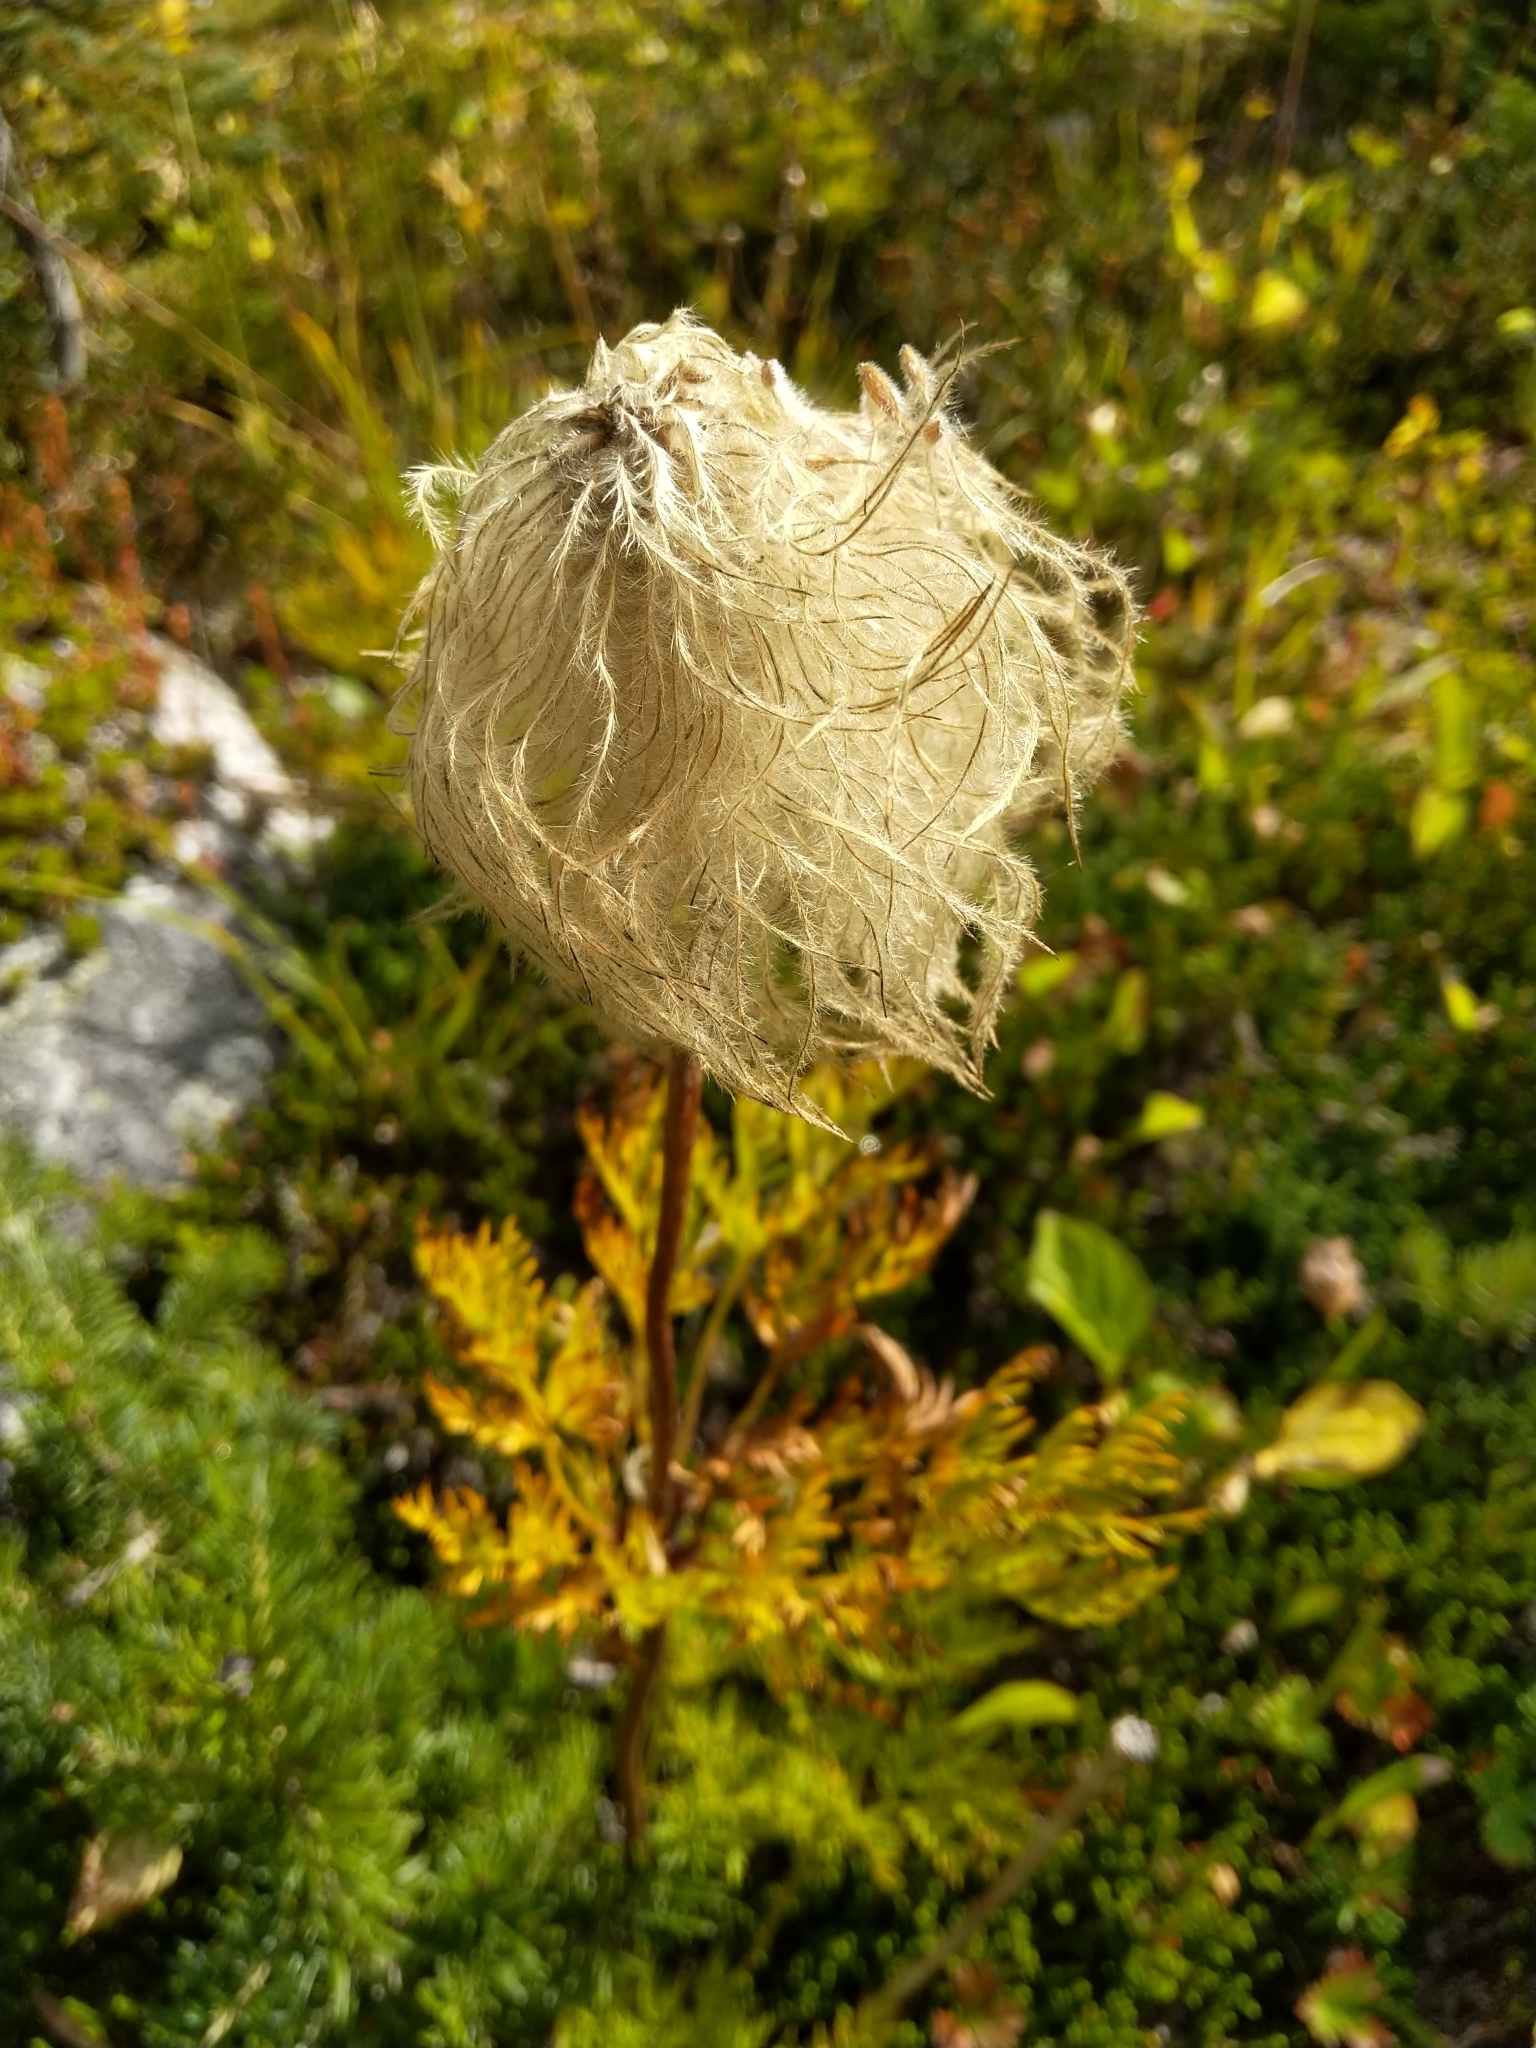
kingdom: Plantae
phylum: Tracheophyta
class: Magnoliopsida
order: Ranunculales
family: Ranunculaceae
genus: Pulsatilla
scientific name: Pulsatilla occidentalis
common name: Mountain pasqueflower
